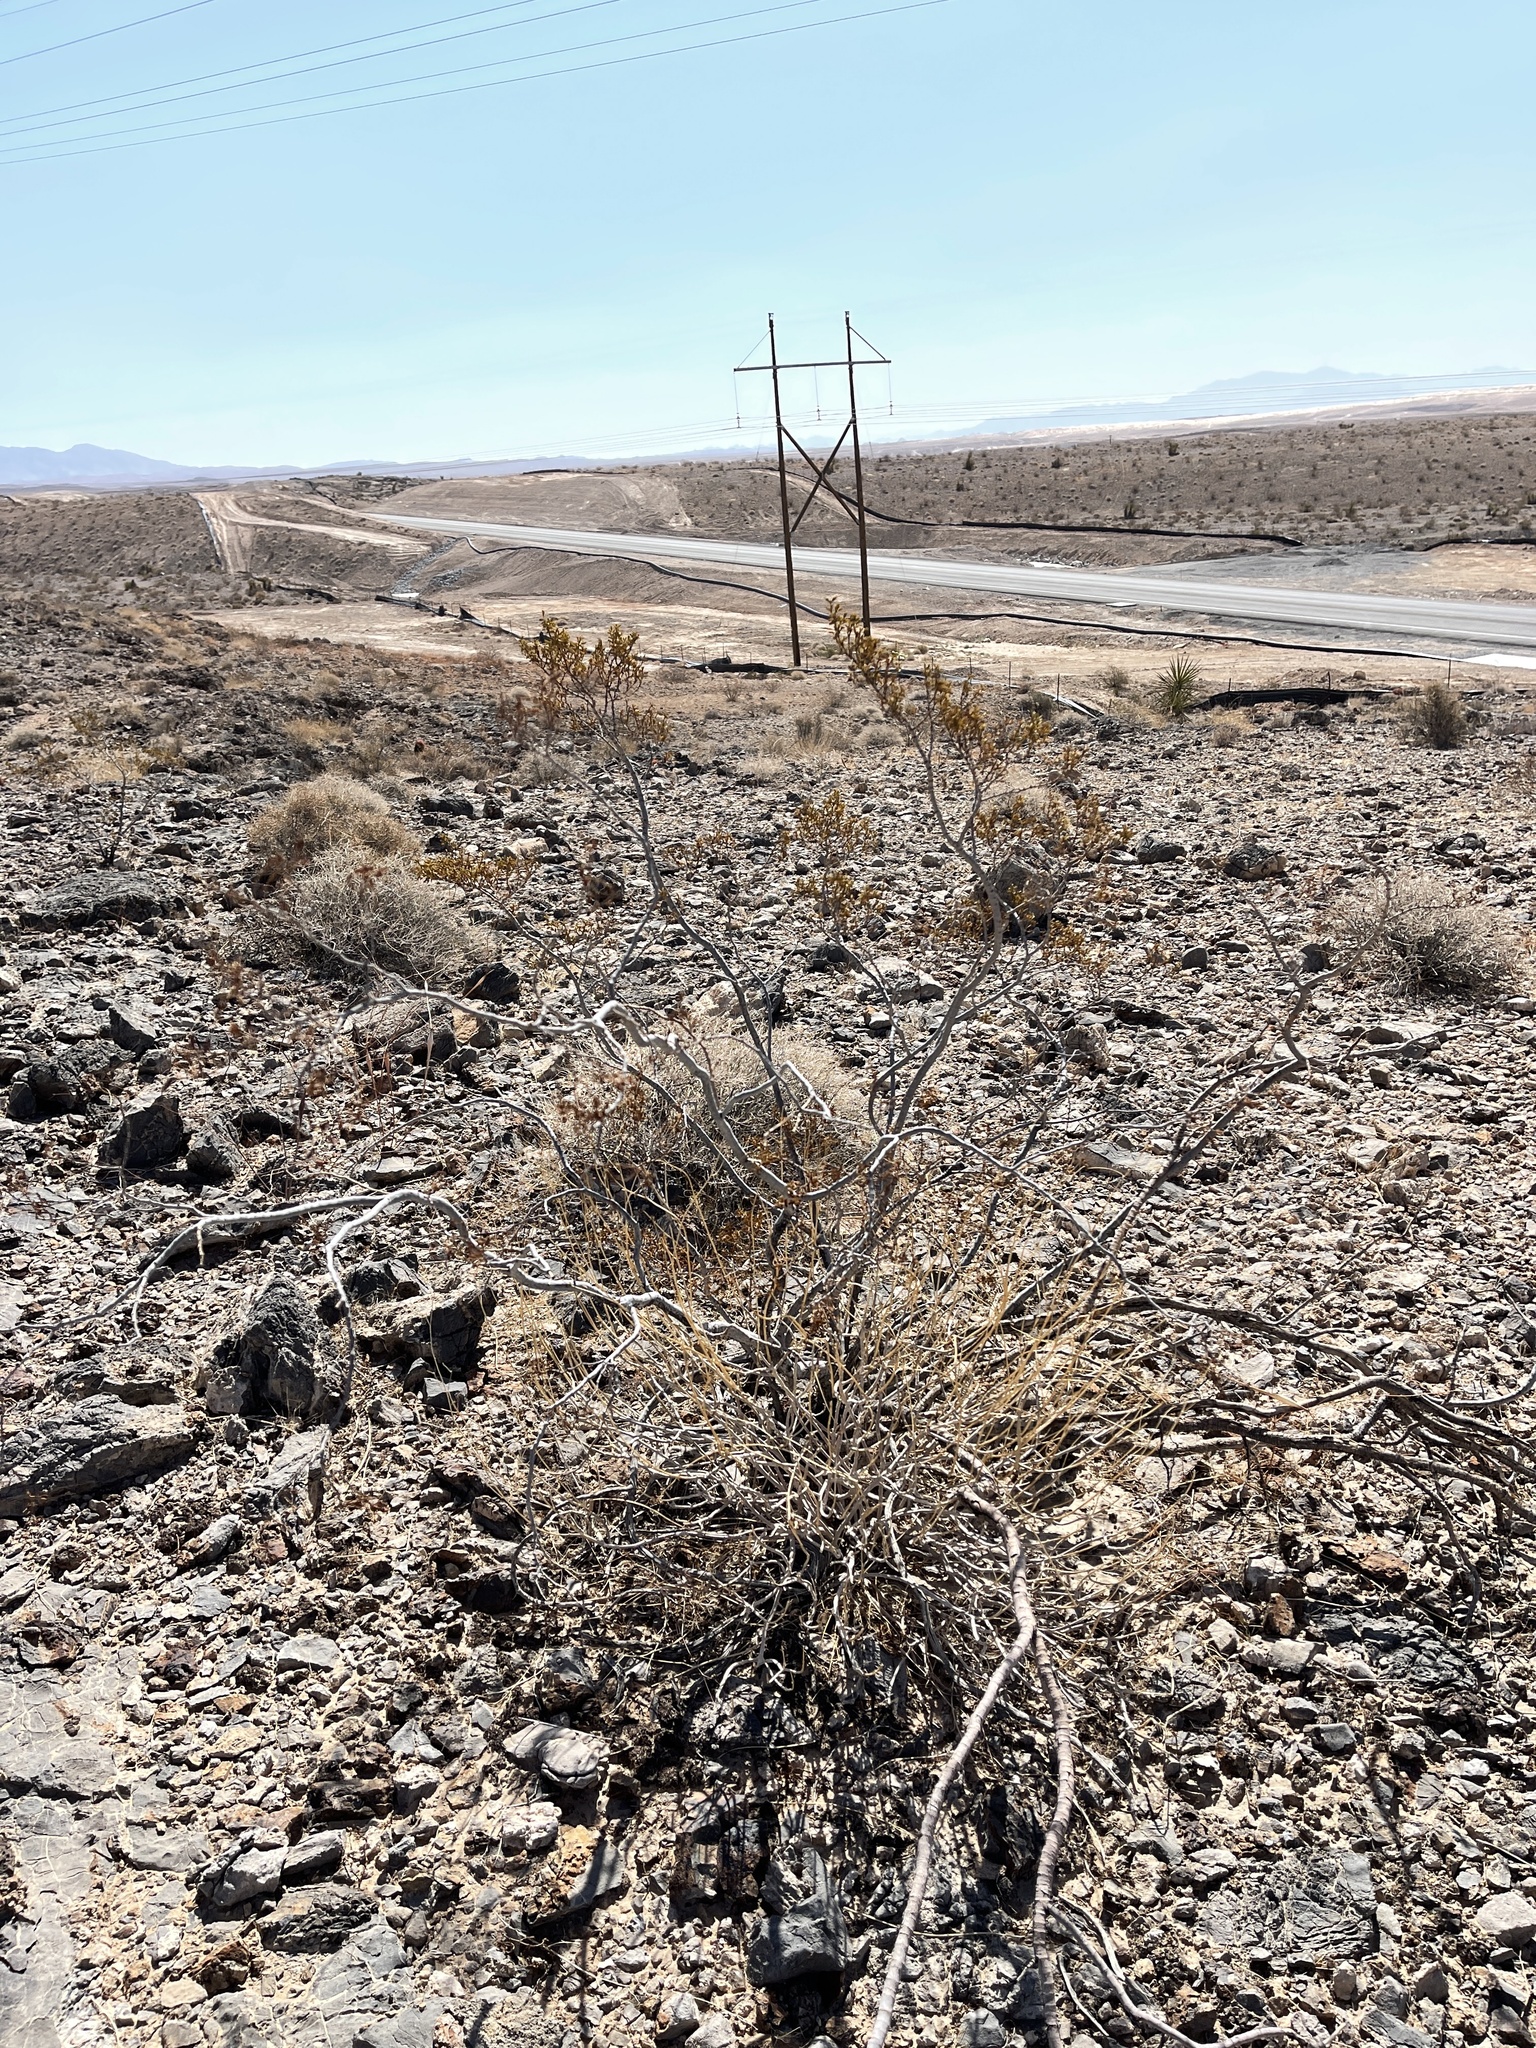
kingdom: Plantae
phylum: Tracheophyta
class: Magnoliopsida
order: Zygophyllales
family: Zygophyllaceae
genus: Larrea
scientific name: Larrea tridentata
